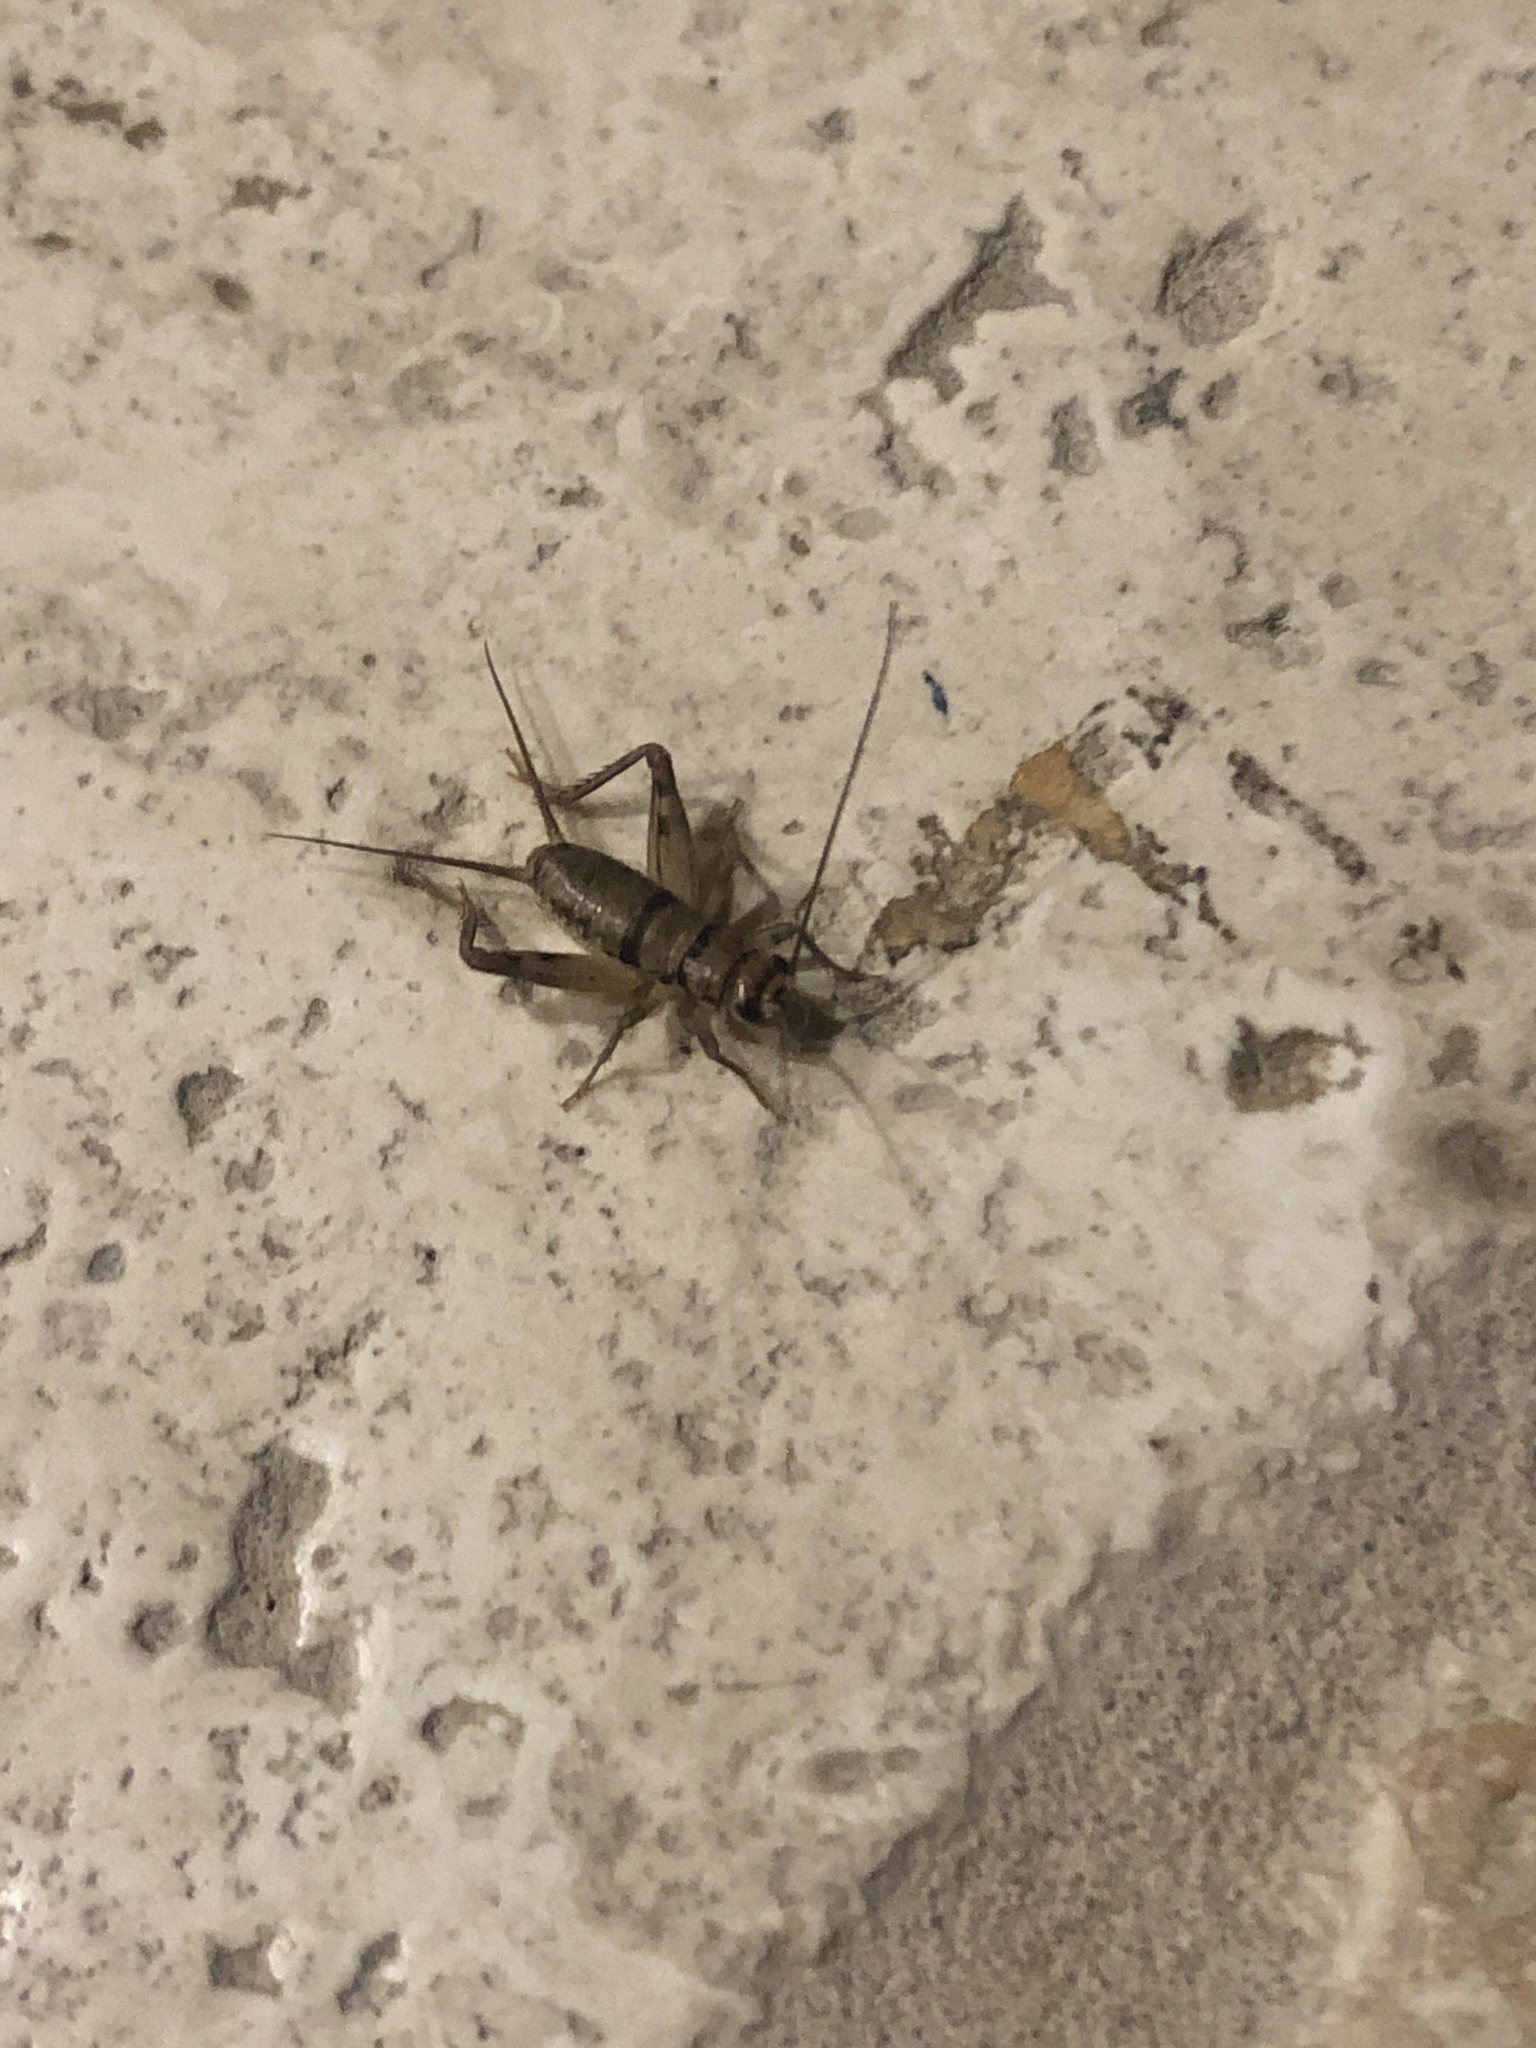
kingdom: Animalia
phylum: Arthropoda
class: Insecta
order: Orthoptera
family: Gryllidae
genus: Gryllodes
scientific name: Gryllodes sigillatus
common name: Tropical house cricket
